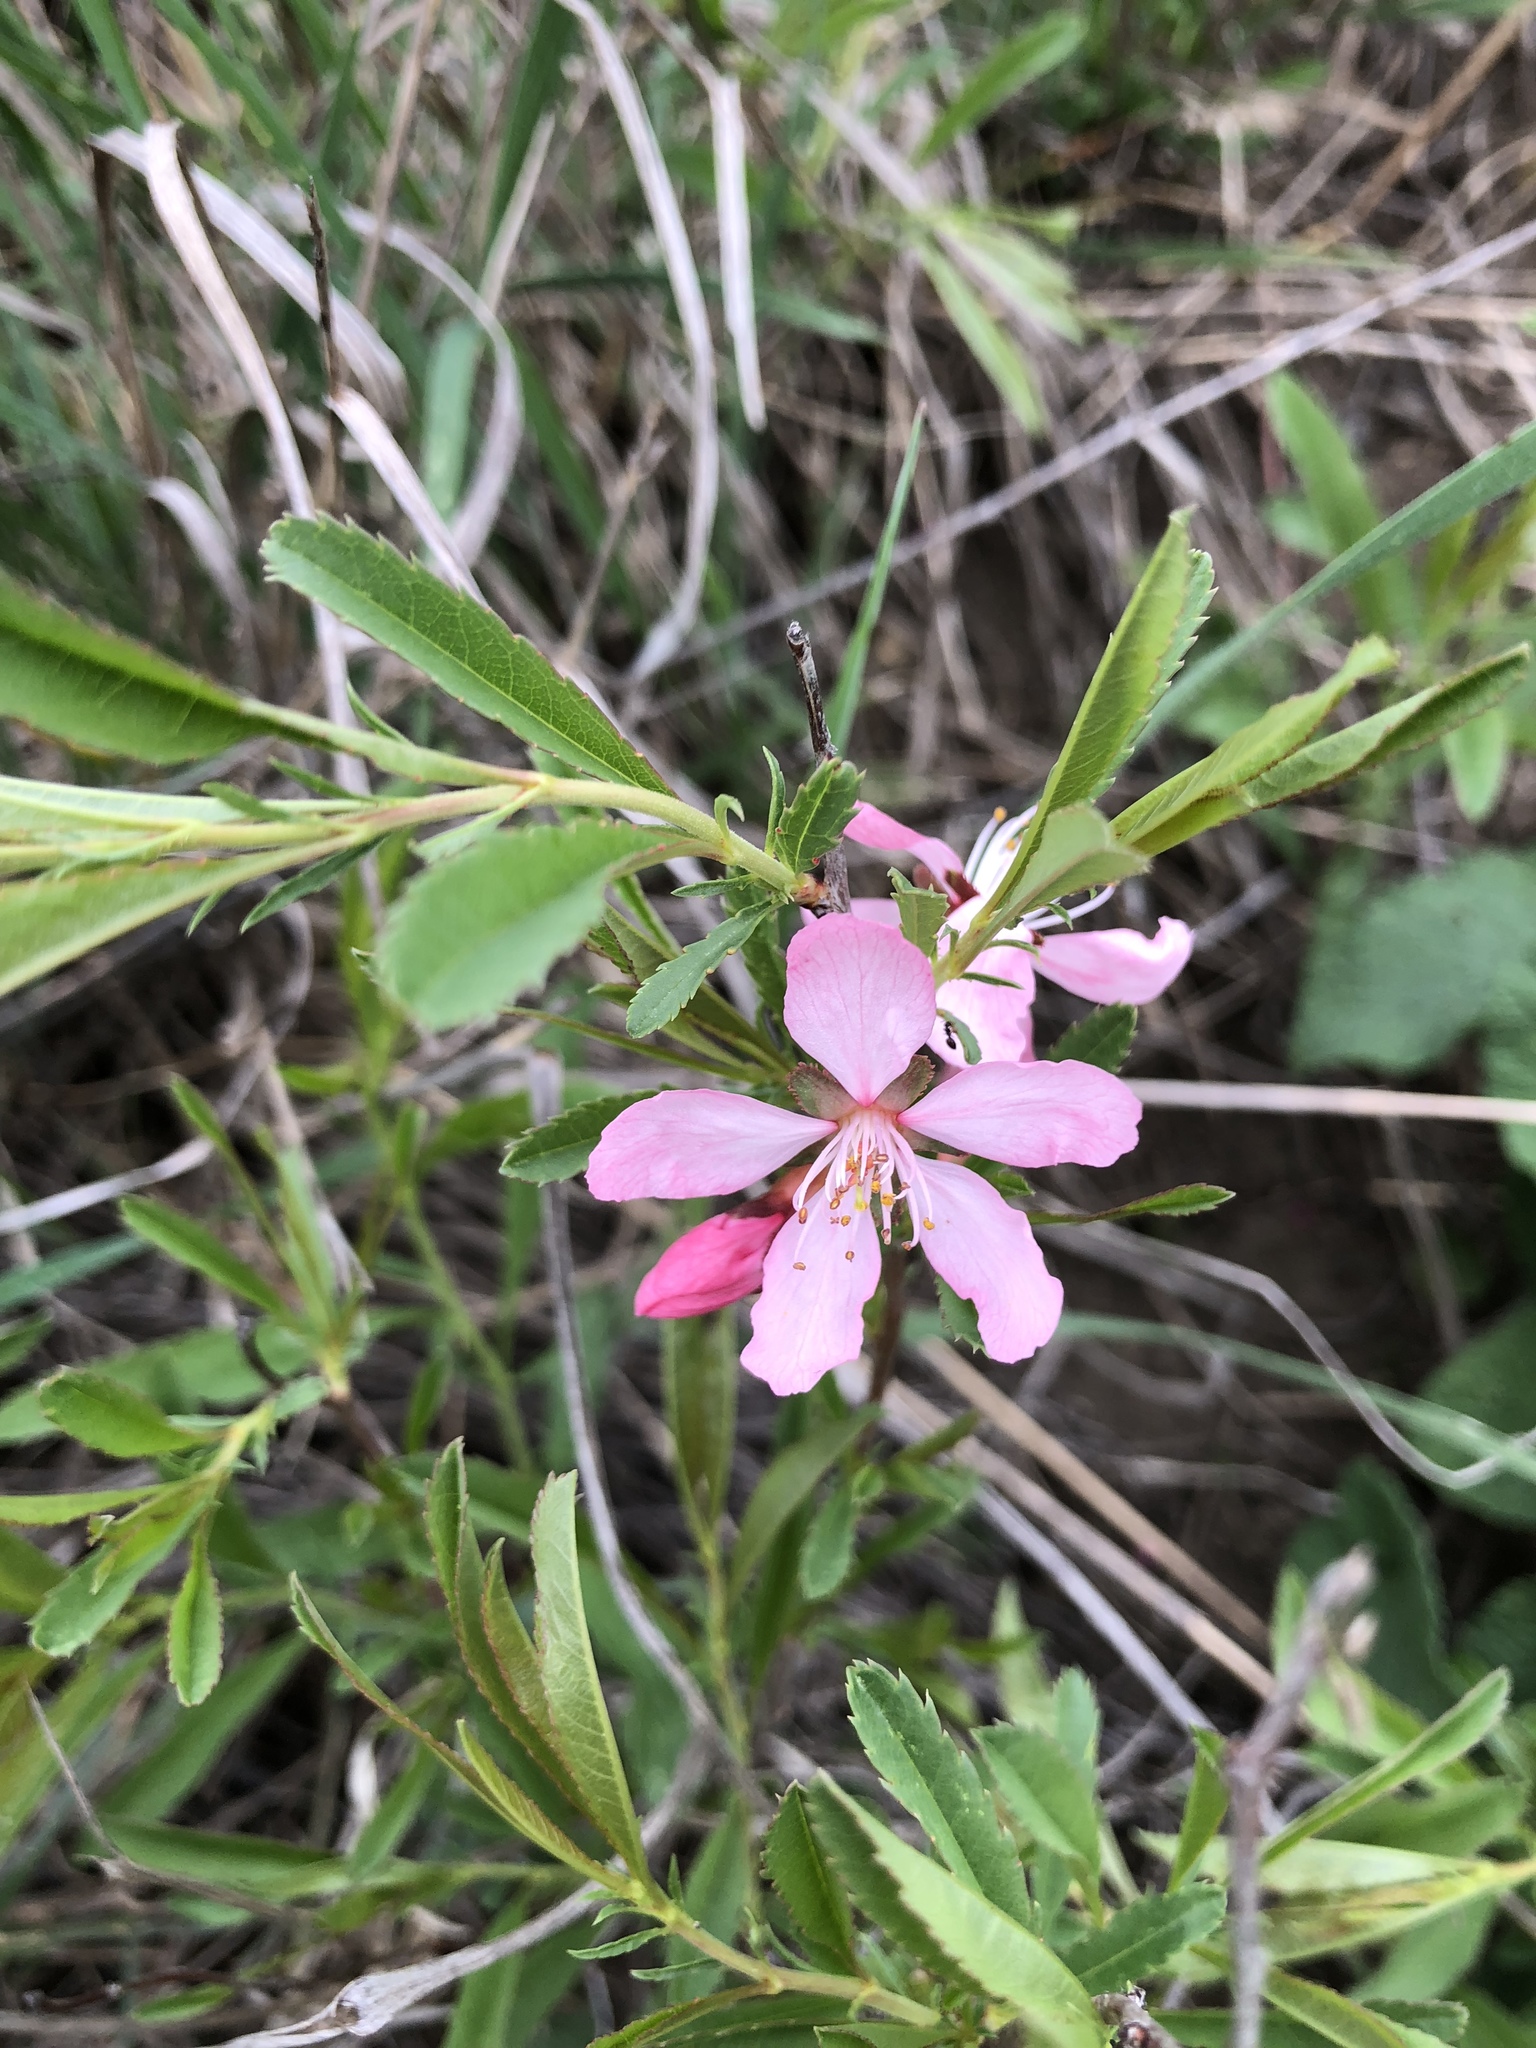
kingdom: Plantae
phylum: Tracheophyta
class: Magnoliopsida
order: Rosales
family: Rosaceae
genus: Prunus
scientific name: Prunus tenella
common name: Dwarf russian almond
